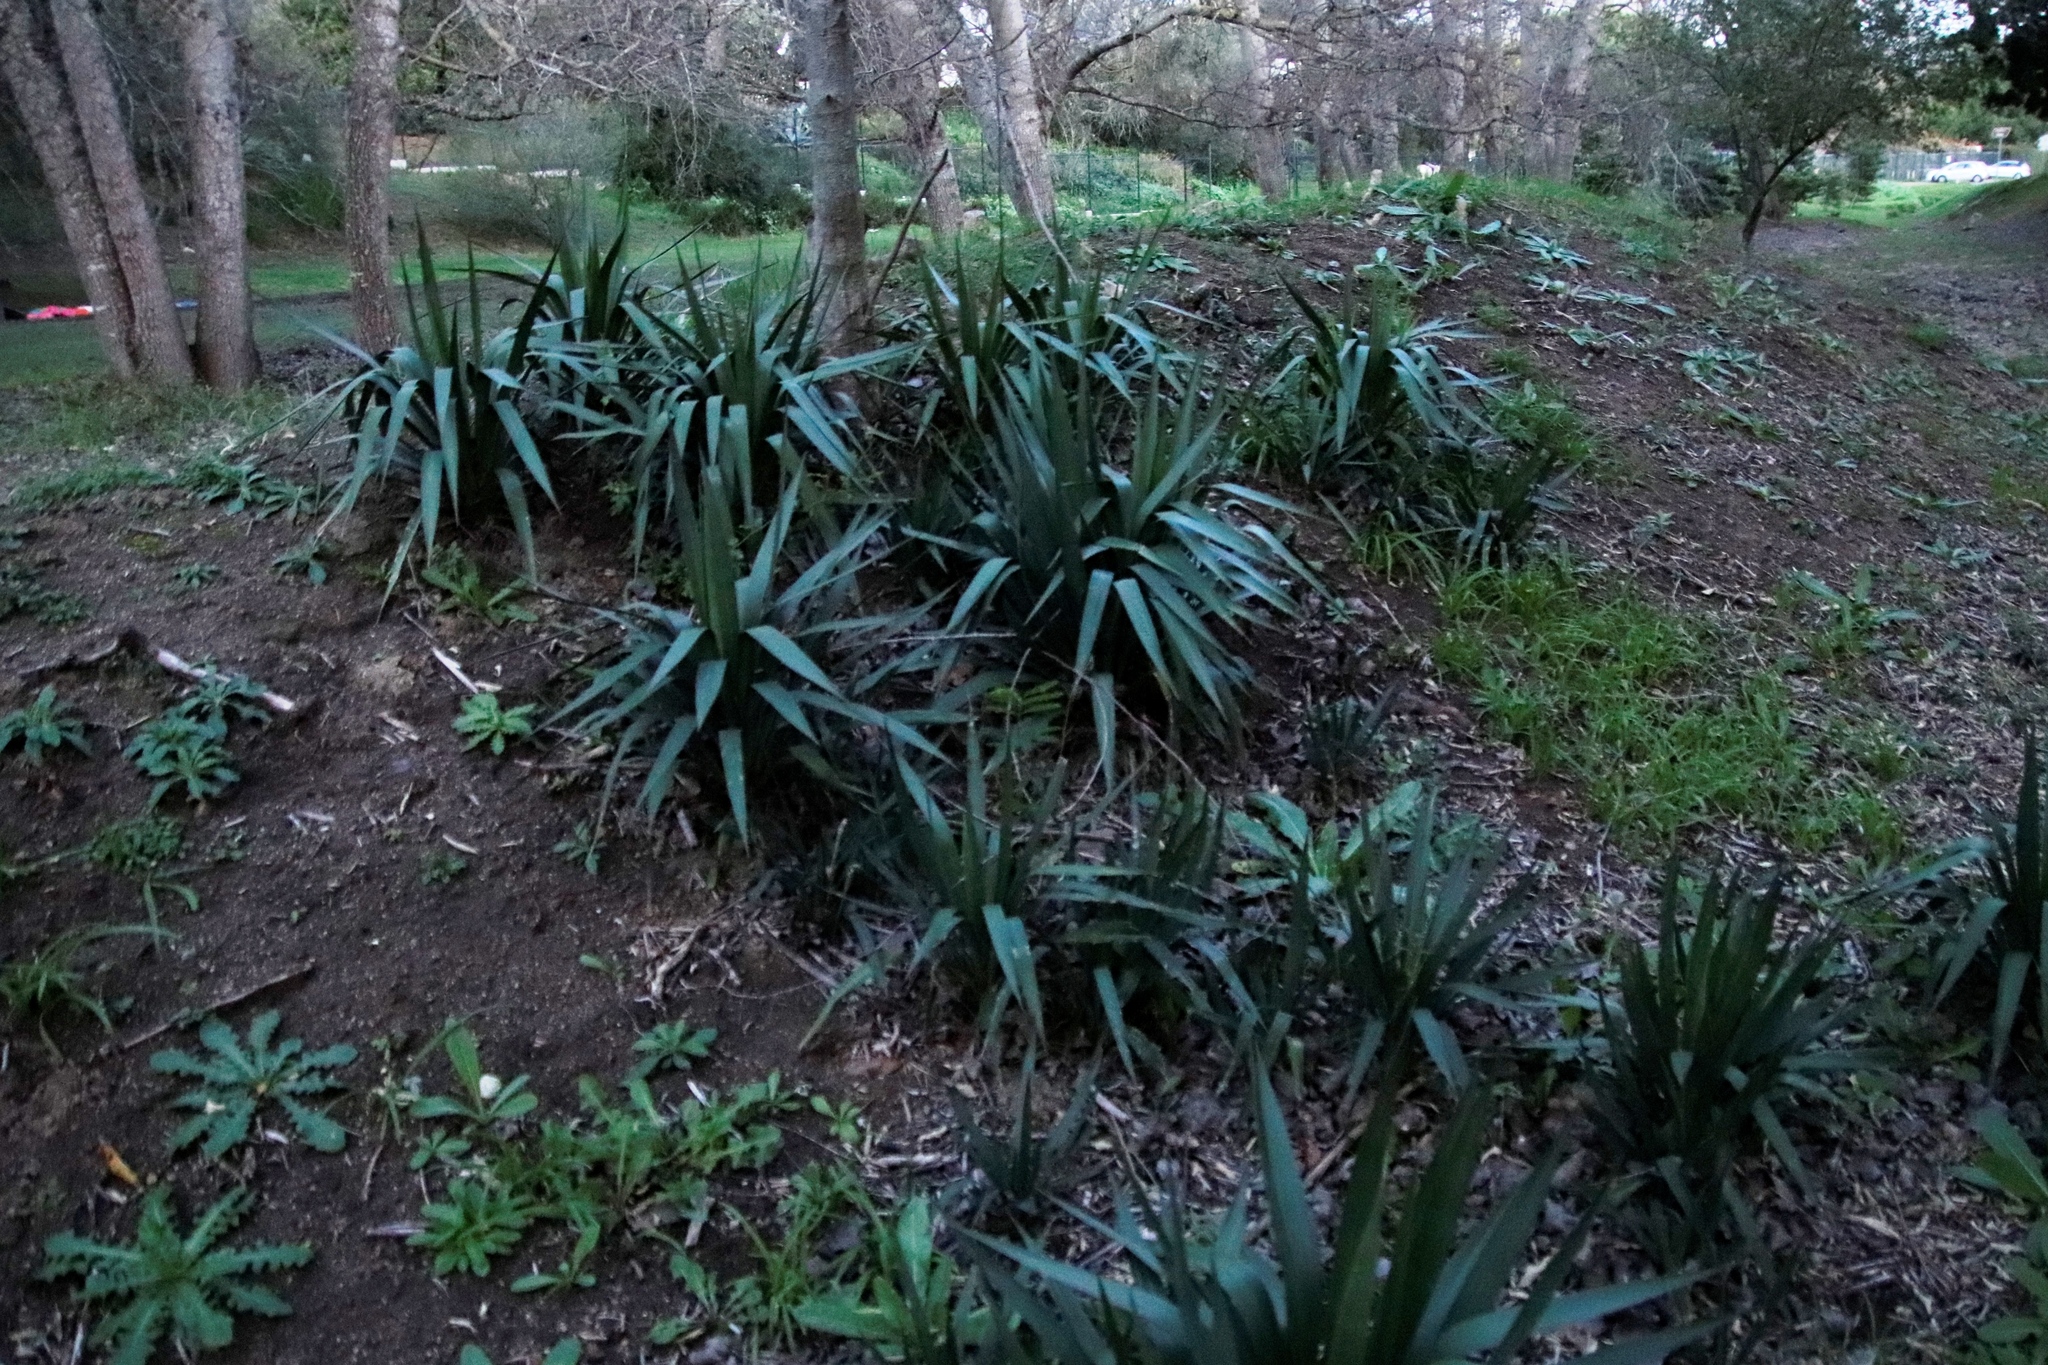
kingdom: Plantae
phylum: Tracheophyta
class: Liliopsida
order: Asparagales
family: Asparagaceae
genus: Yucca
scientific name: Yucca gloriosa
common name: Spanish-dagger
